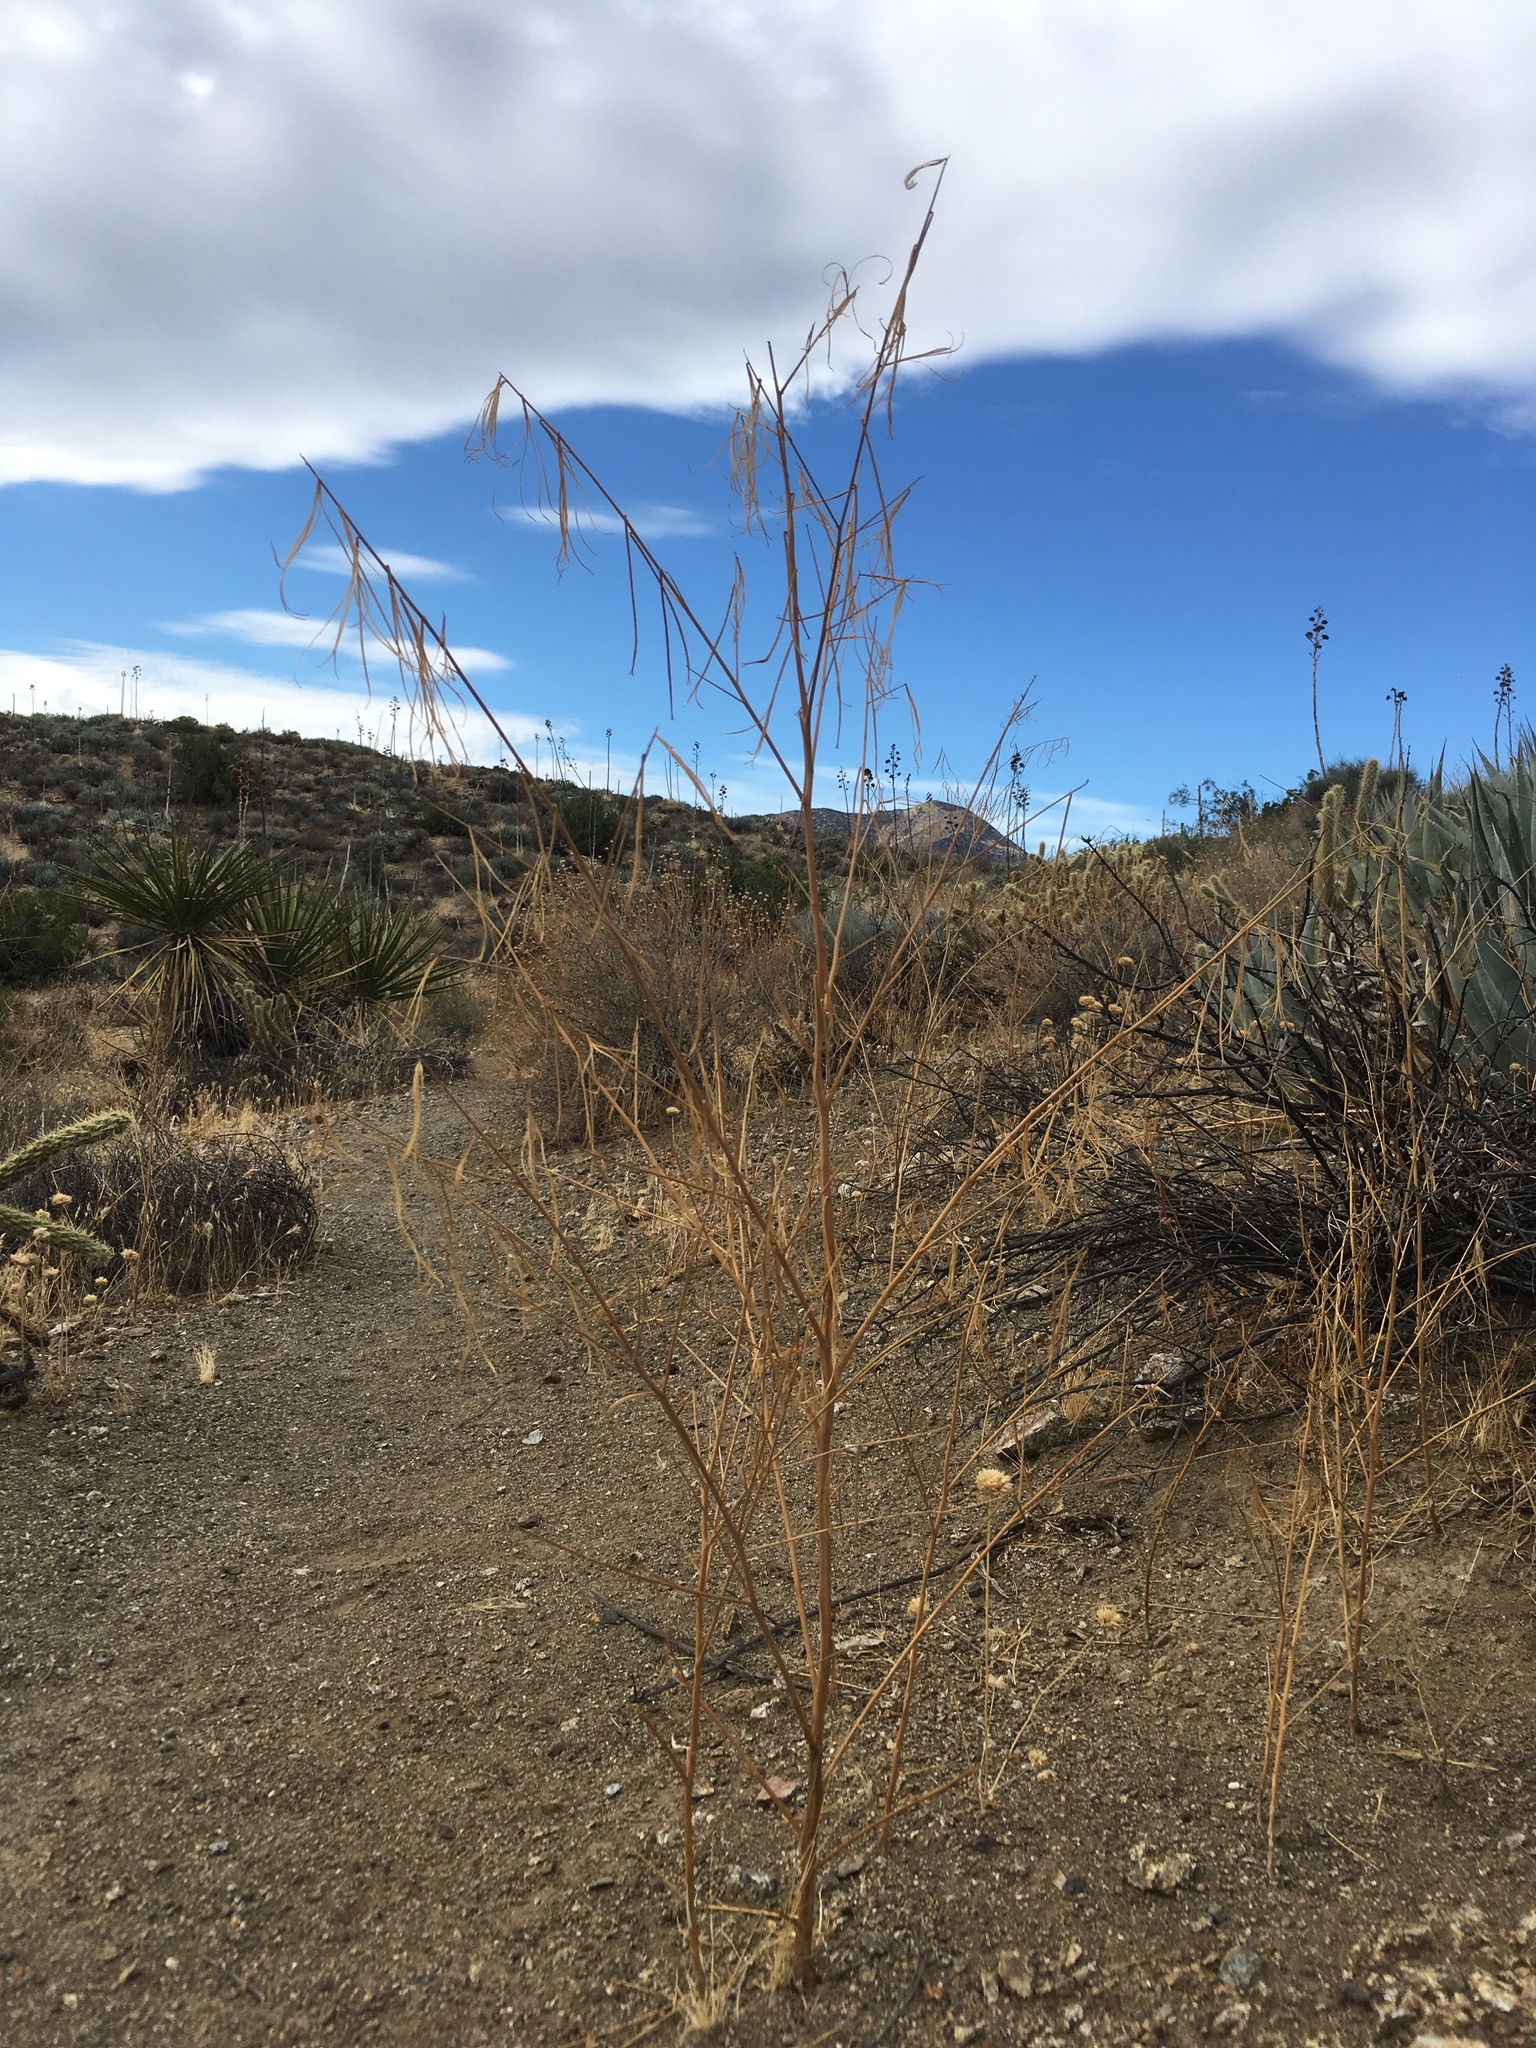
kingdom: Plantae
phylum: Tracheophyta
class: Magnoliopsida
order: Myrtales
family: Onagraceae
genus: Eulobus
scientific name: Eulobus californicus
